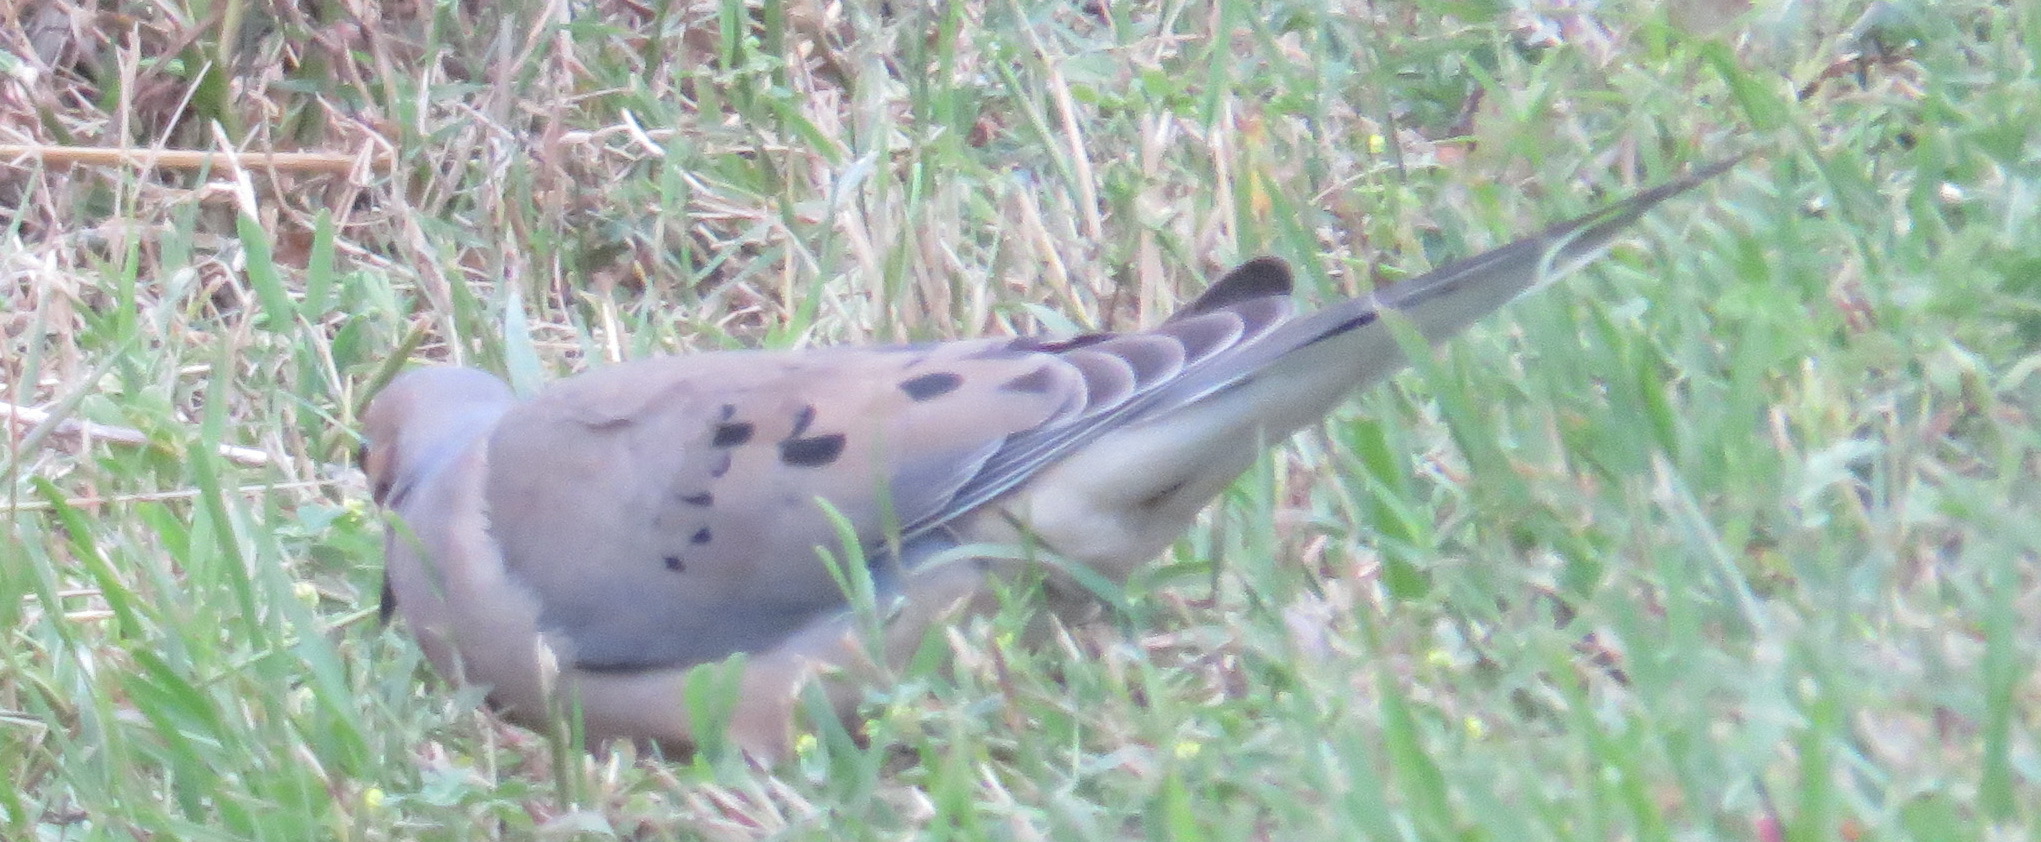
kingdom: Animalia
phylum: Chordata
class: Aves
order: Columbiformes
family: Columbidae
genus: Zenaida
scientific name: Zenaida macroura
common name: Mourning dove
